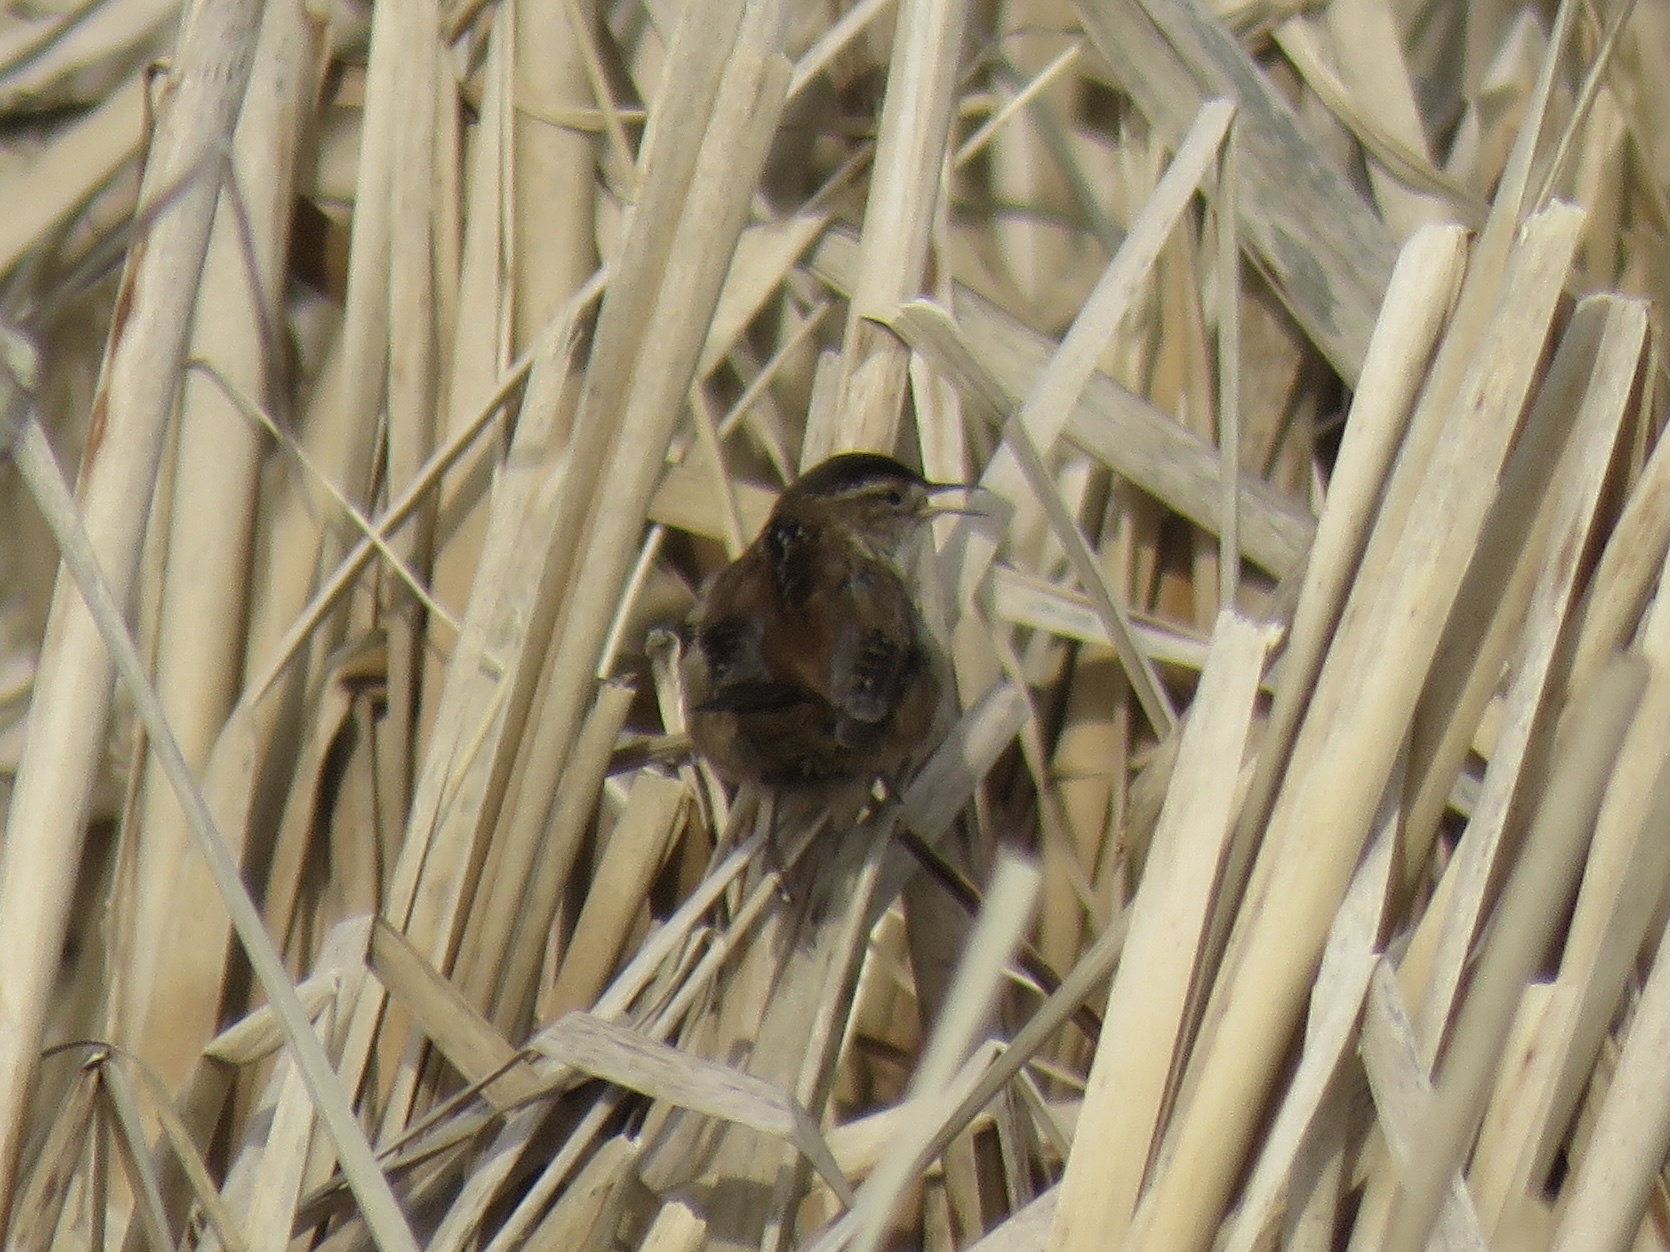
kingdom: Animalia
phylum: Chordata
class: Aves
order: Passeriformes
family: Troglodytidae
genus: Cistothorus
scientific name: Cistothorus palustris
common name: Marsh wren
